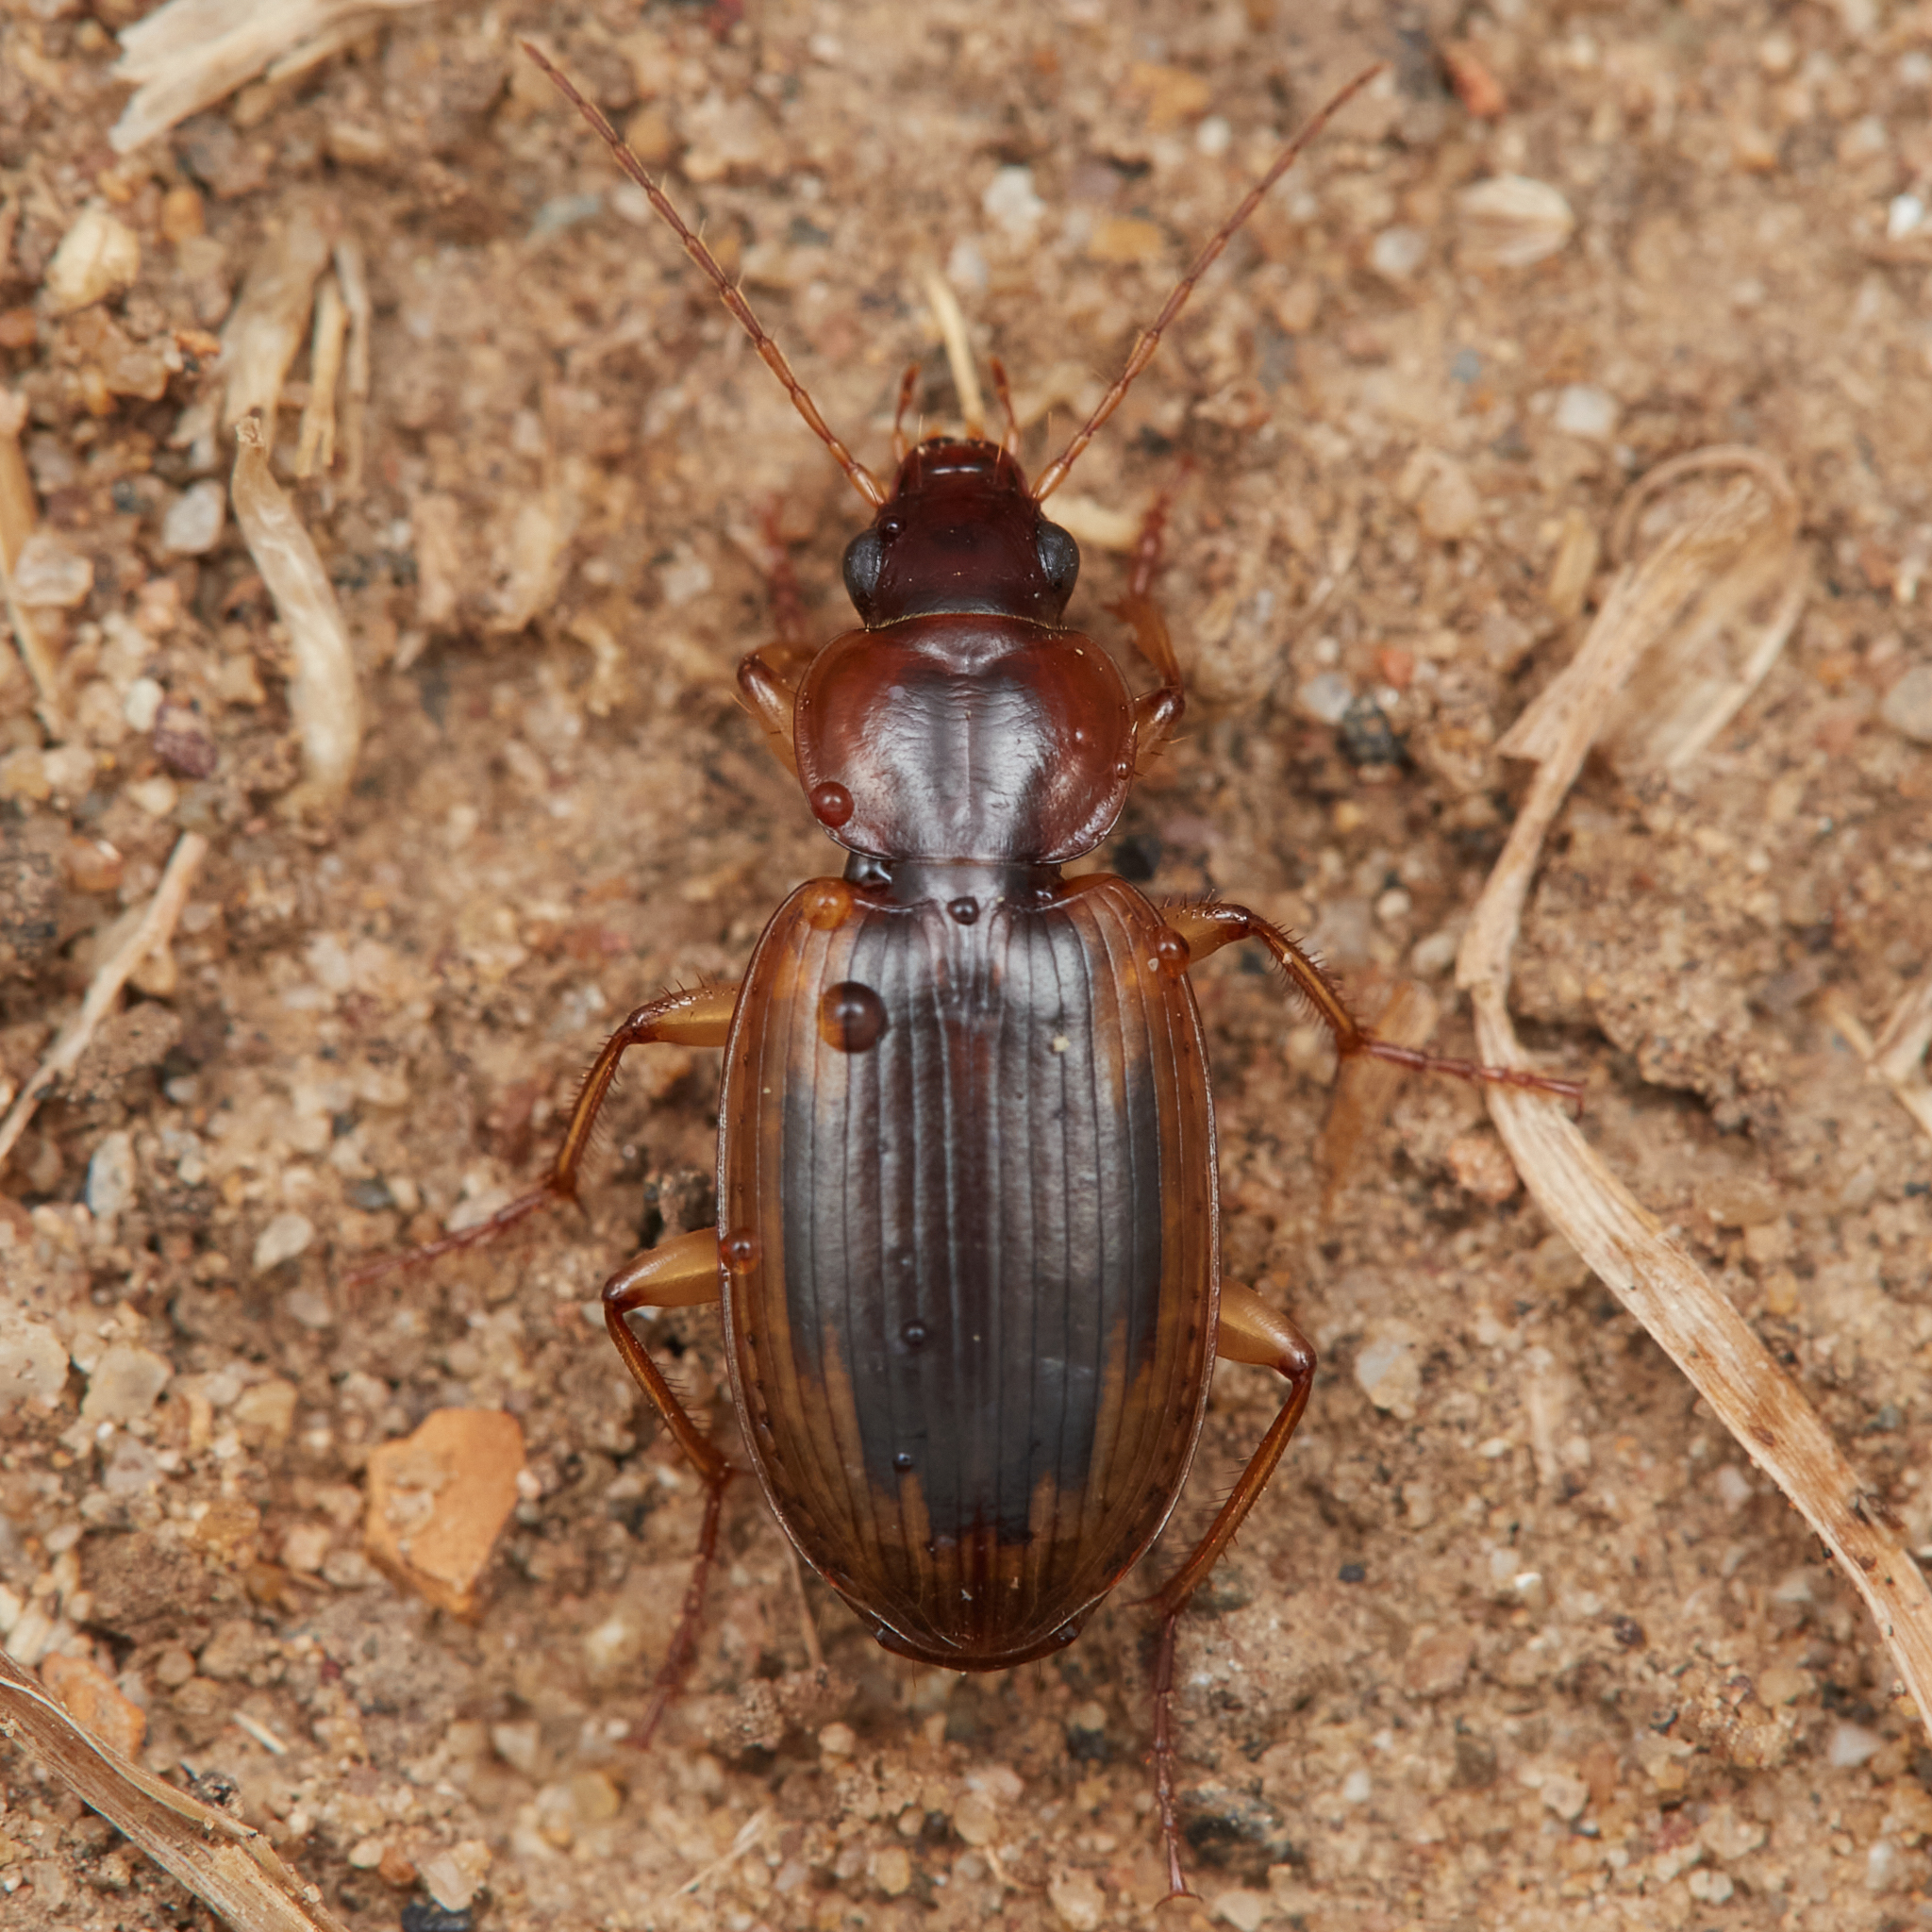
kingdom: Animalia
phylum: Arthropoda
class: Insecta
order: Coleoptera
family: Carabidae
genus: Tanystoma
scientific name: Tanystoma maculicolle
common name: Tule beetle
